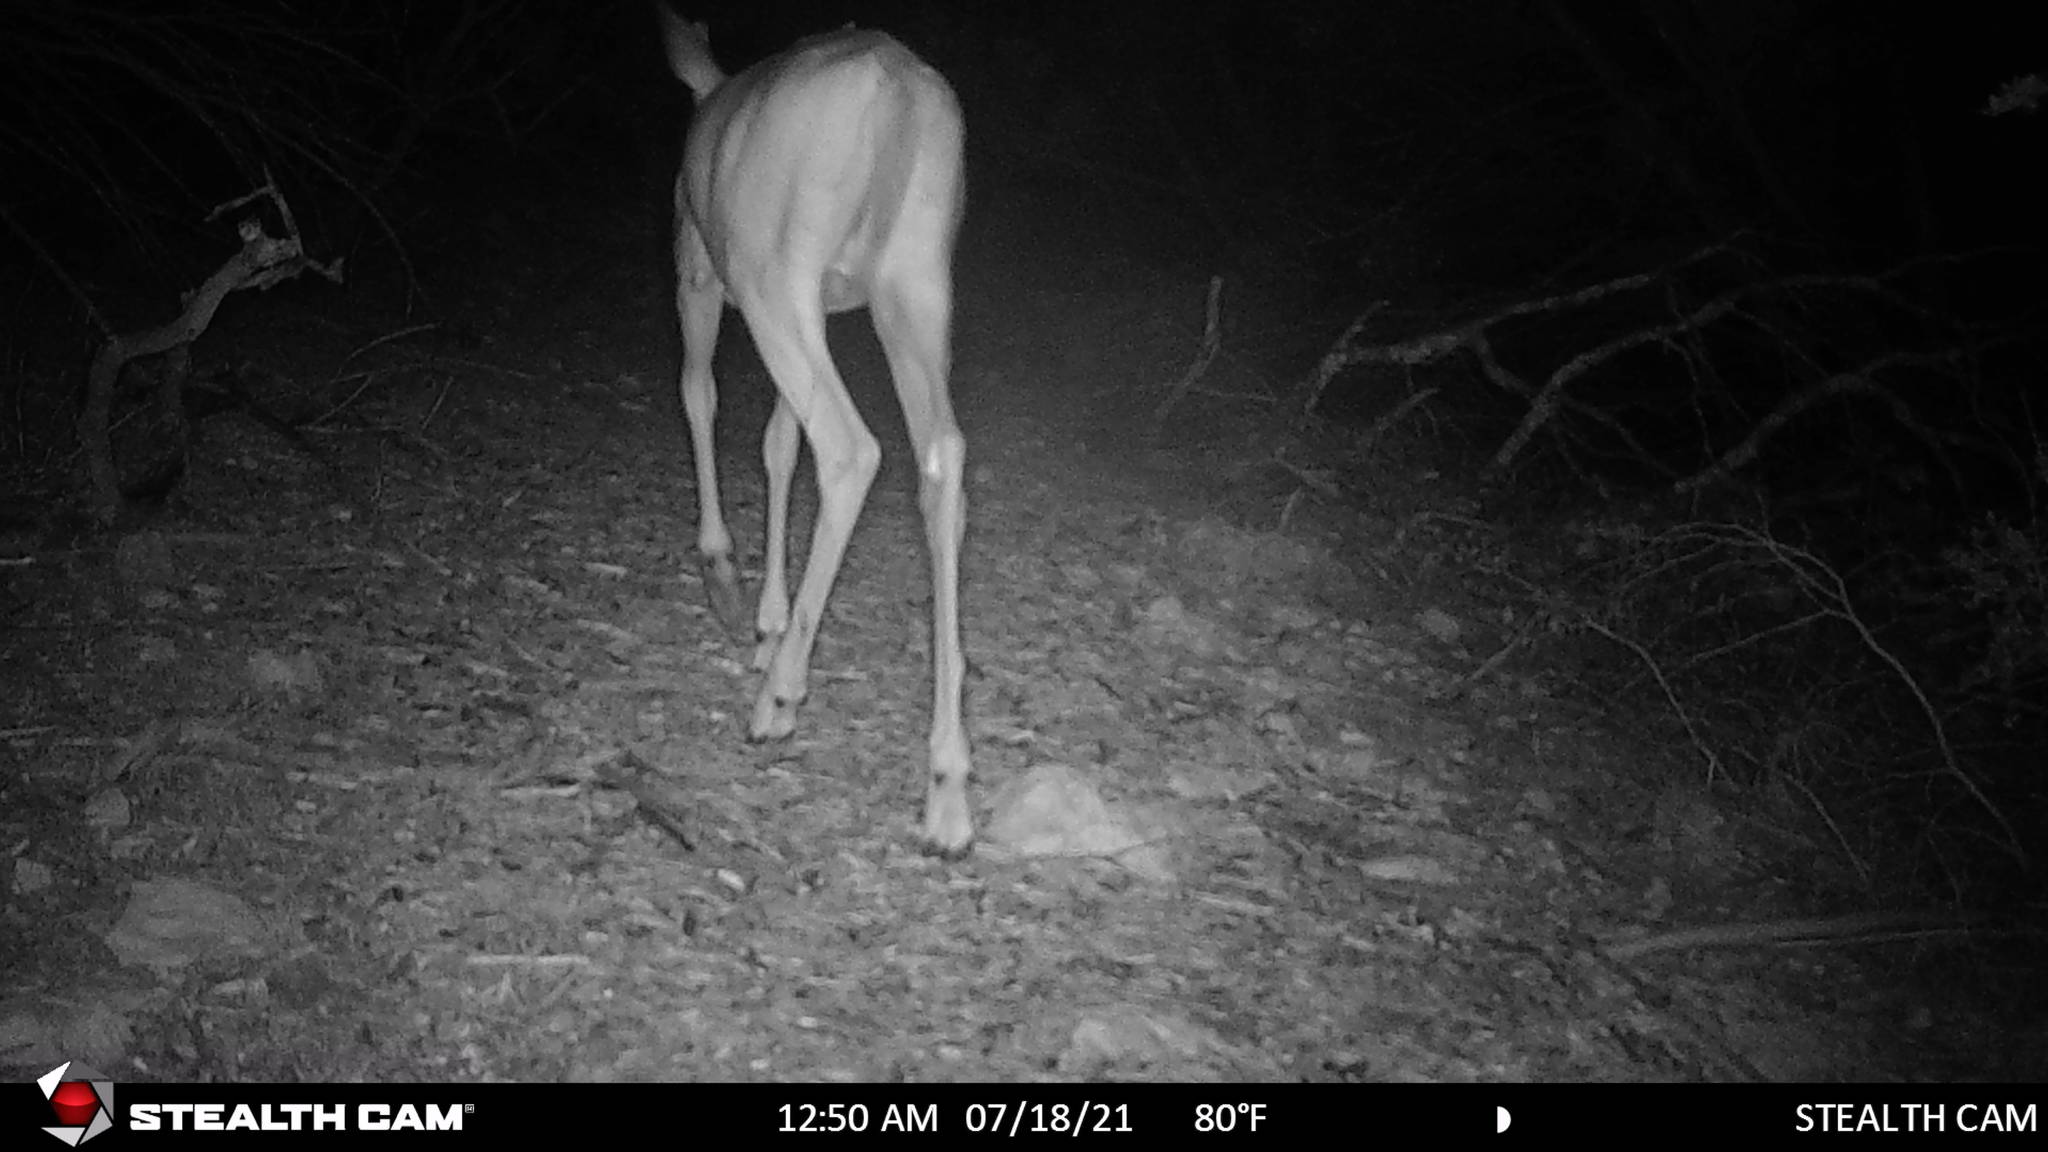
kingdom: Animalia
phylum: Chordata
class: Mammalia
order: Artiodactyla
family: Cervidae
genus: Odocoileus
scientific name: Odocoileus virginianus
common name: White-tailed deer
